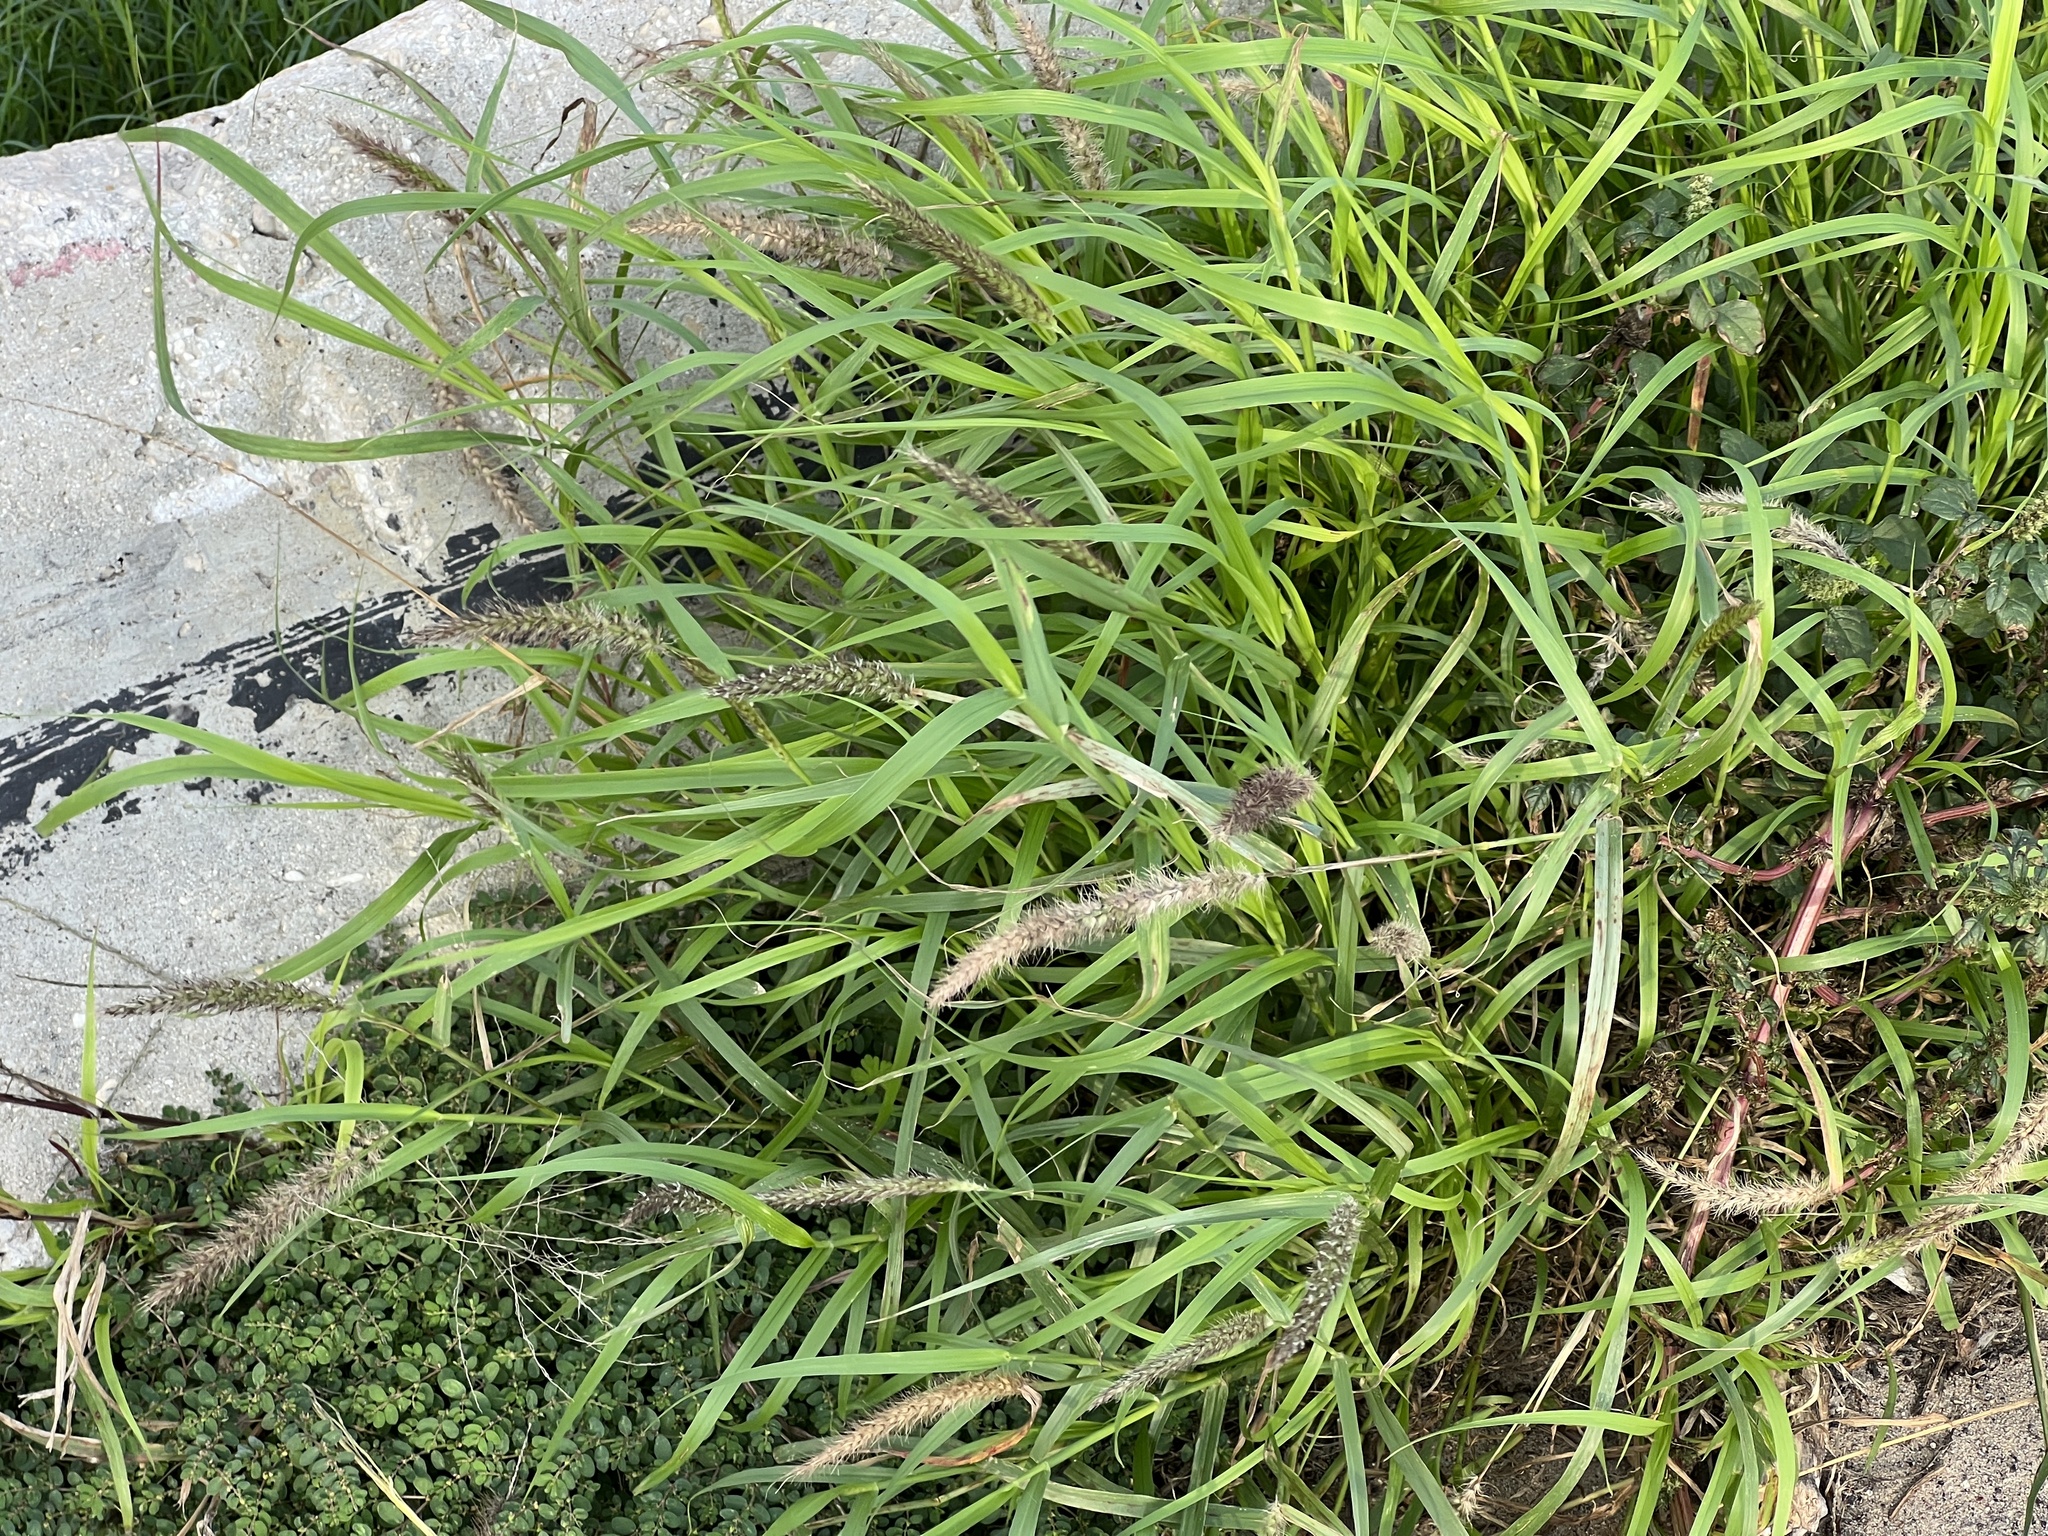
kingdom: Plantae
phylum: Tracheophyta
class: Liliopsida
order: Poales
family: Poaceae
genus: Cenchrus
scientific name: Cenchrus ciliaris
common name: Buffelgrass
